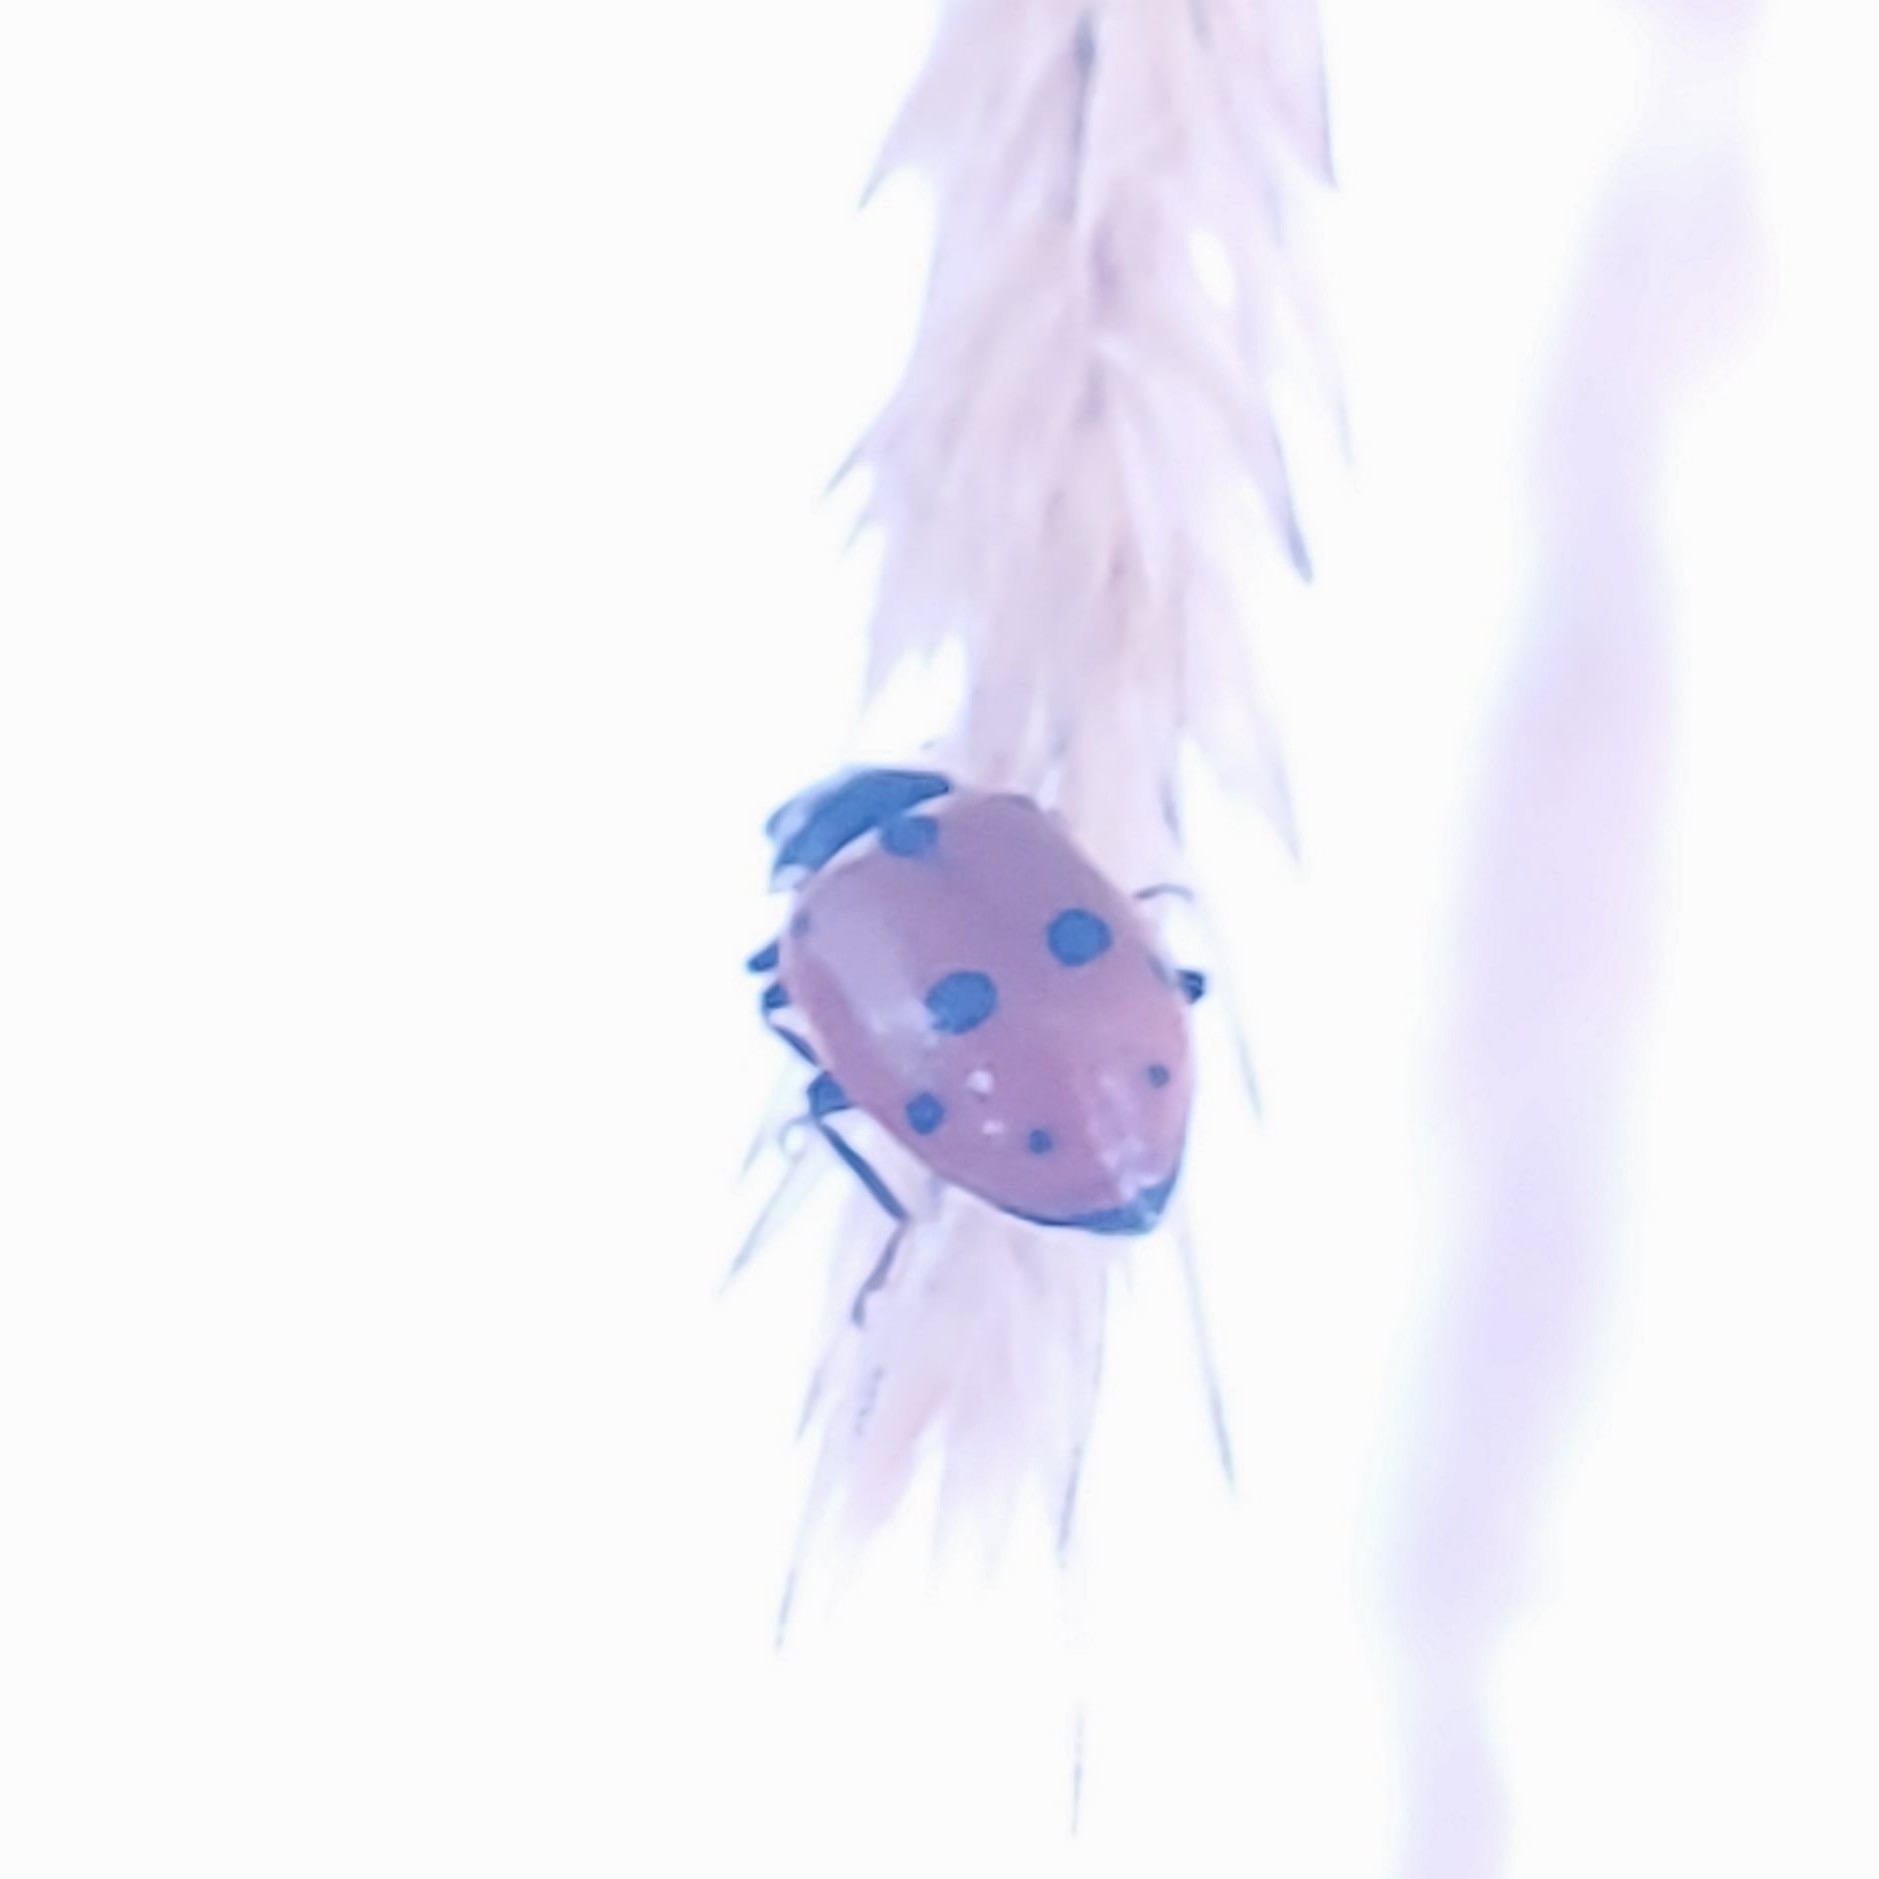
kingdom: Animalia
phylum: Arthropoda
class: Insecta
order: Coleoptera
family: Coccinellidae
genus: Hippodamia
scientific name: Hippodamia variegata
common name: Ladybird beetle
